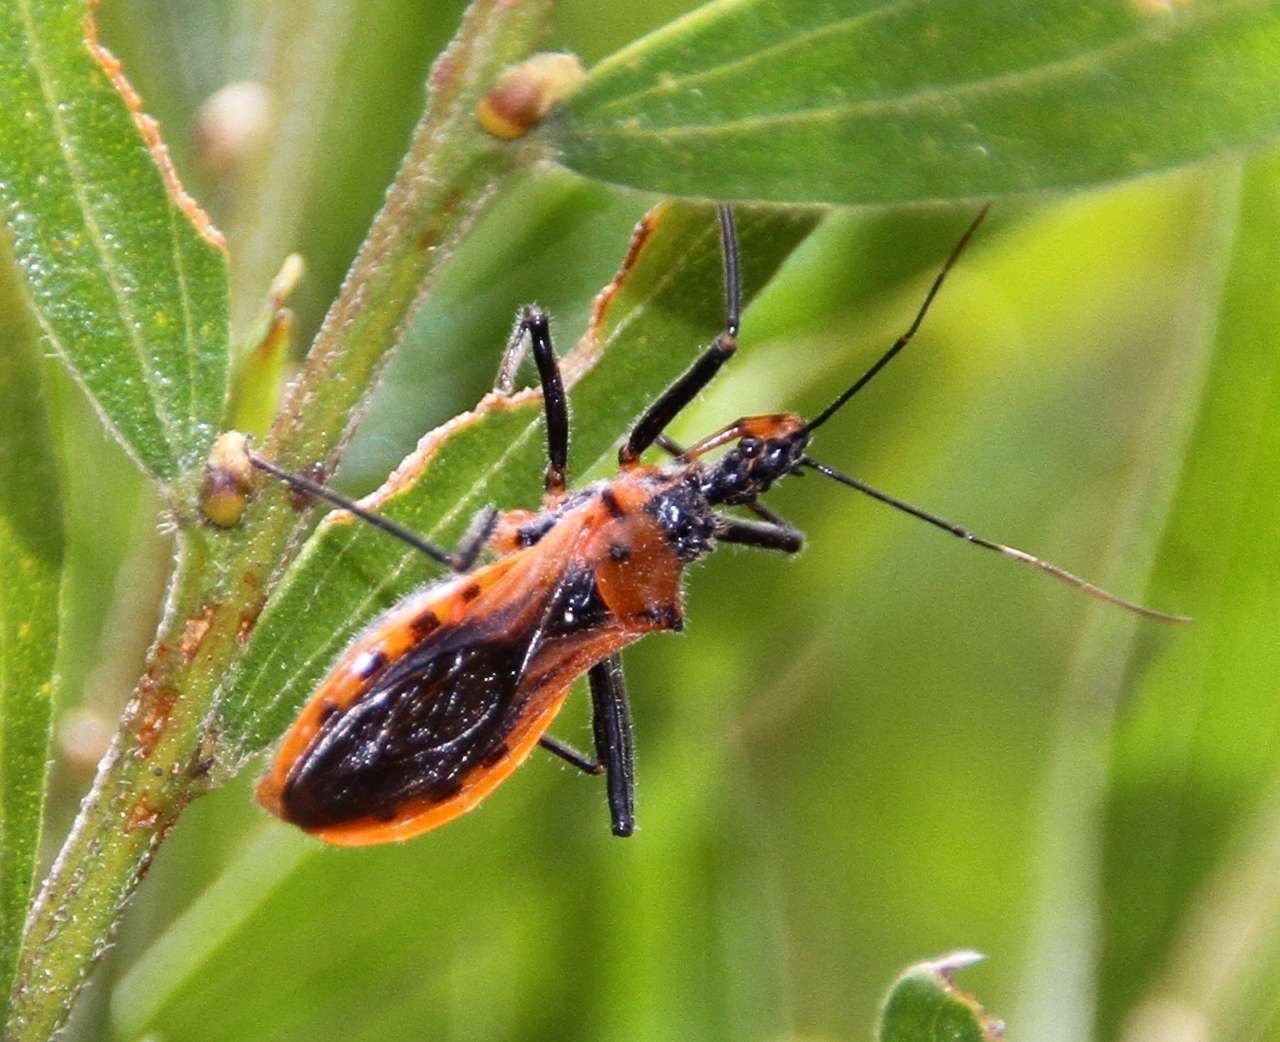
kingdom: Animalia
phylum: Arthropoda
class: Insecta
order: Hemiptera
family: Reduviidae
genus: Gminatus
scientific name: Gminatus australis
